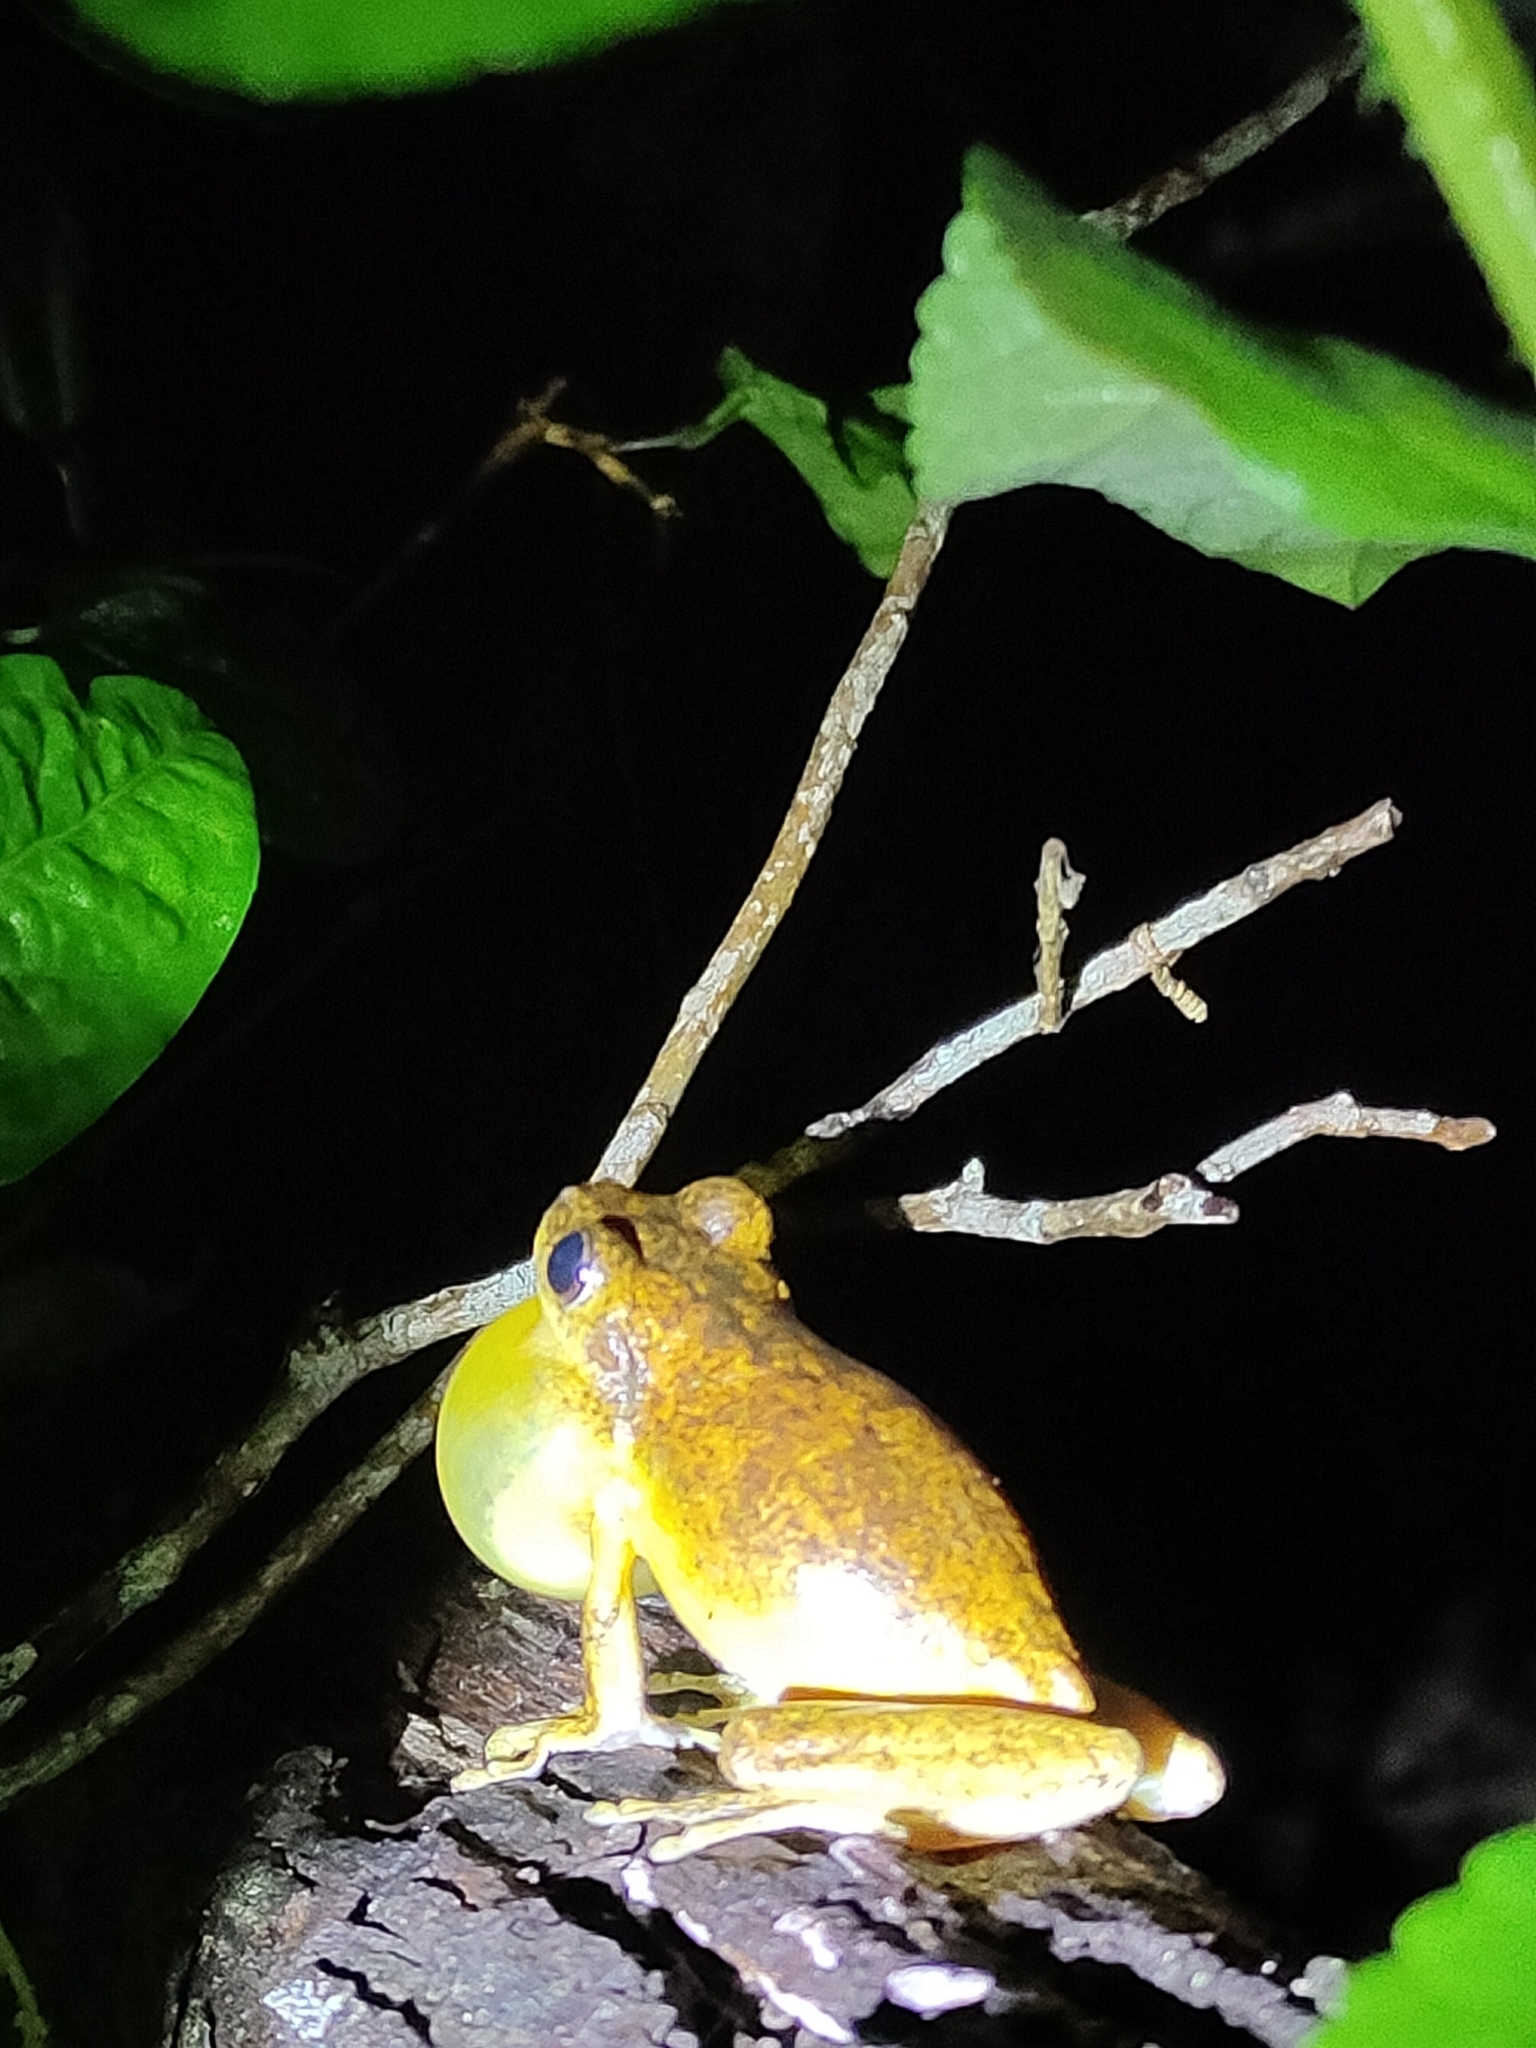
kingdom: Animalia
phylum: Chordata
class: Amphibia
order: Anura
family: Pelodryadidae
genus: Litoria
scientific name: Litoria tyleri
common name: Laughing tree frog
